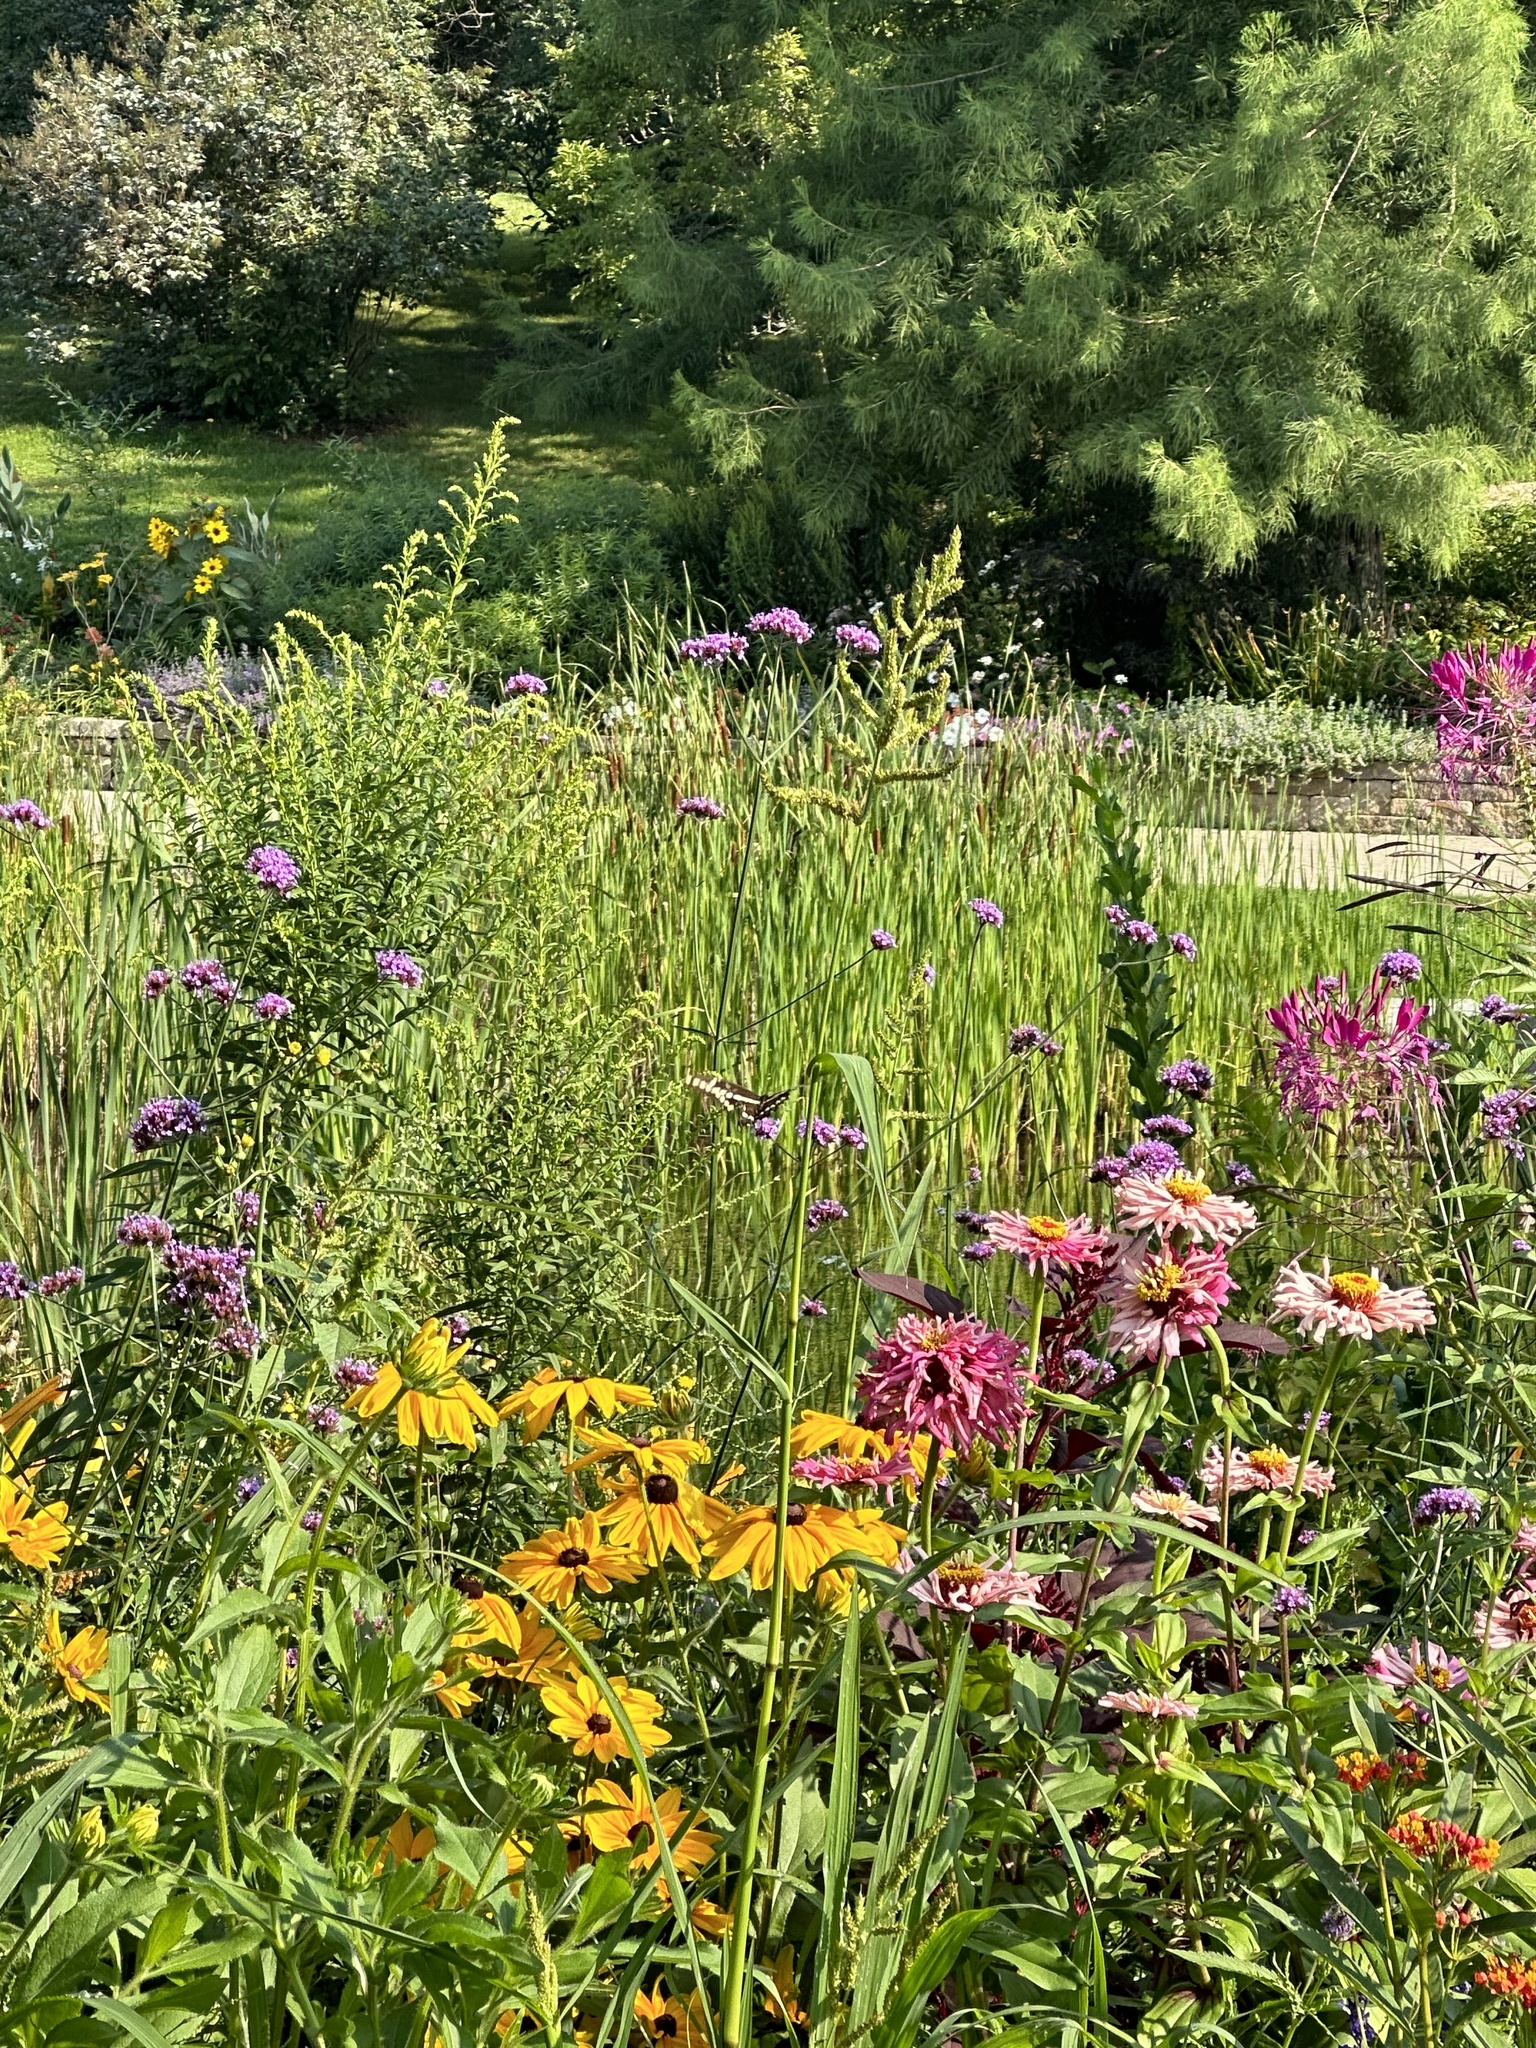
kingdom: Animalia
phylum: Arthropoda
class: Insecta
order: Lepidoptera
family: Papilionidae
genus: Papilio
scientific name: Papilio cresphontes
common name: Giant swallowtail
